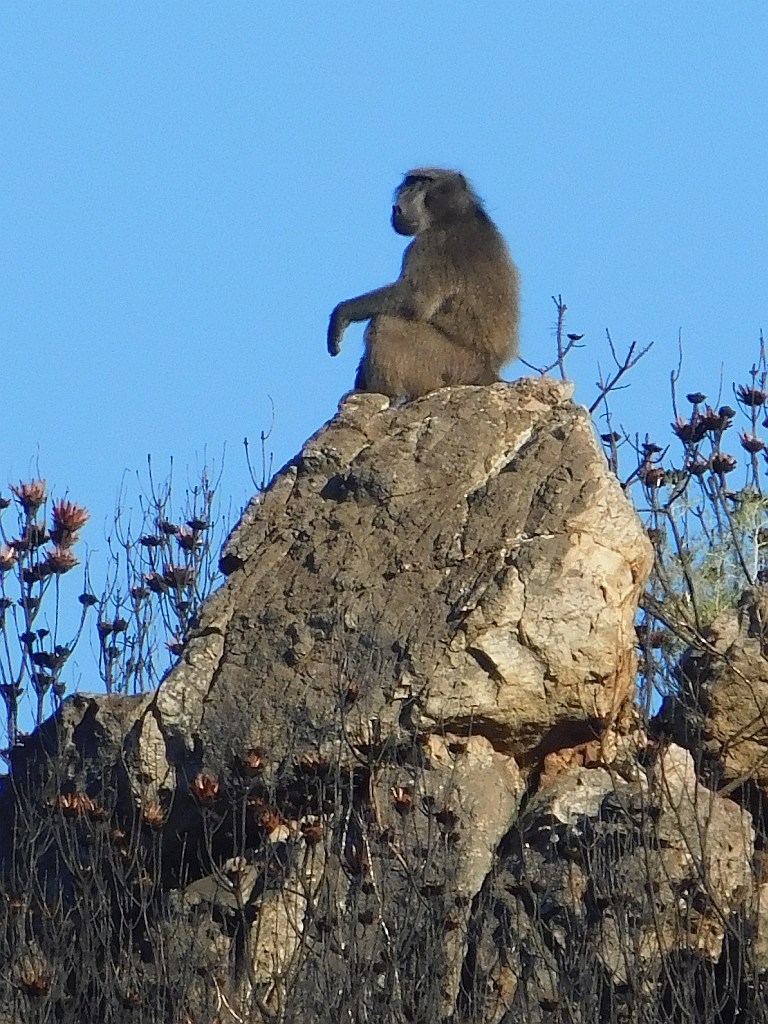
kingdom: Animalia
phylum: Chordata
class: Mammalia
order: Primates
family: Cercopithecidae
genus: Papio
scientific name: Papio ursinus
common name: Chacma baboon
